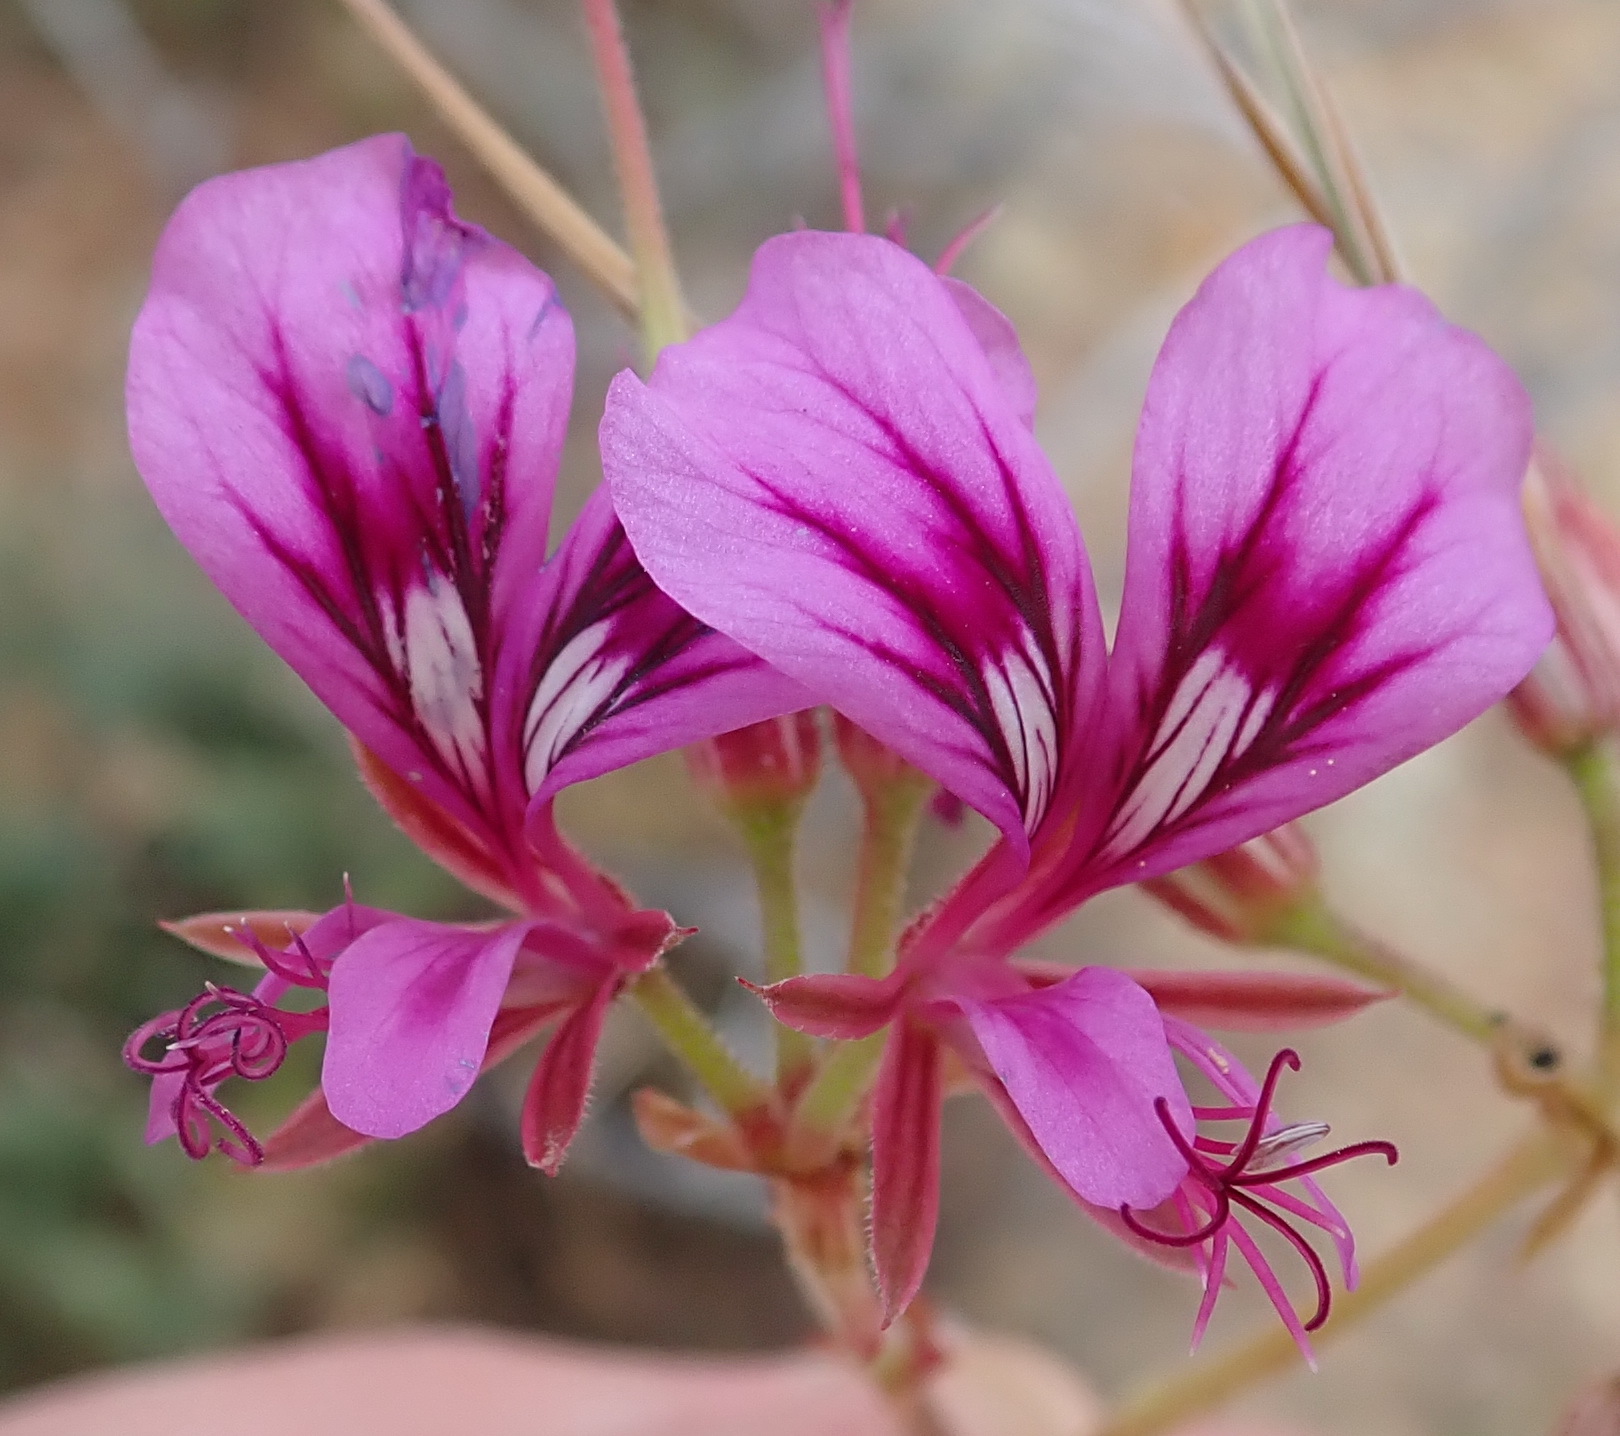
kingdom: Plantae
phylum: Tracheophyta
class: Magnoliopsida
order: Geraniales
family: Geraniaceae
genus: Pelargonium
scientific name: Pelargonium multicaule
